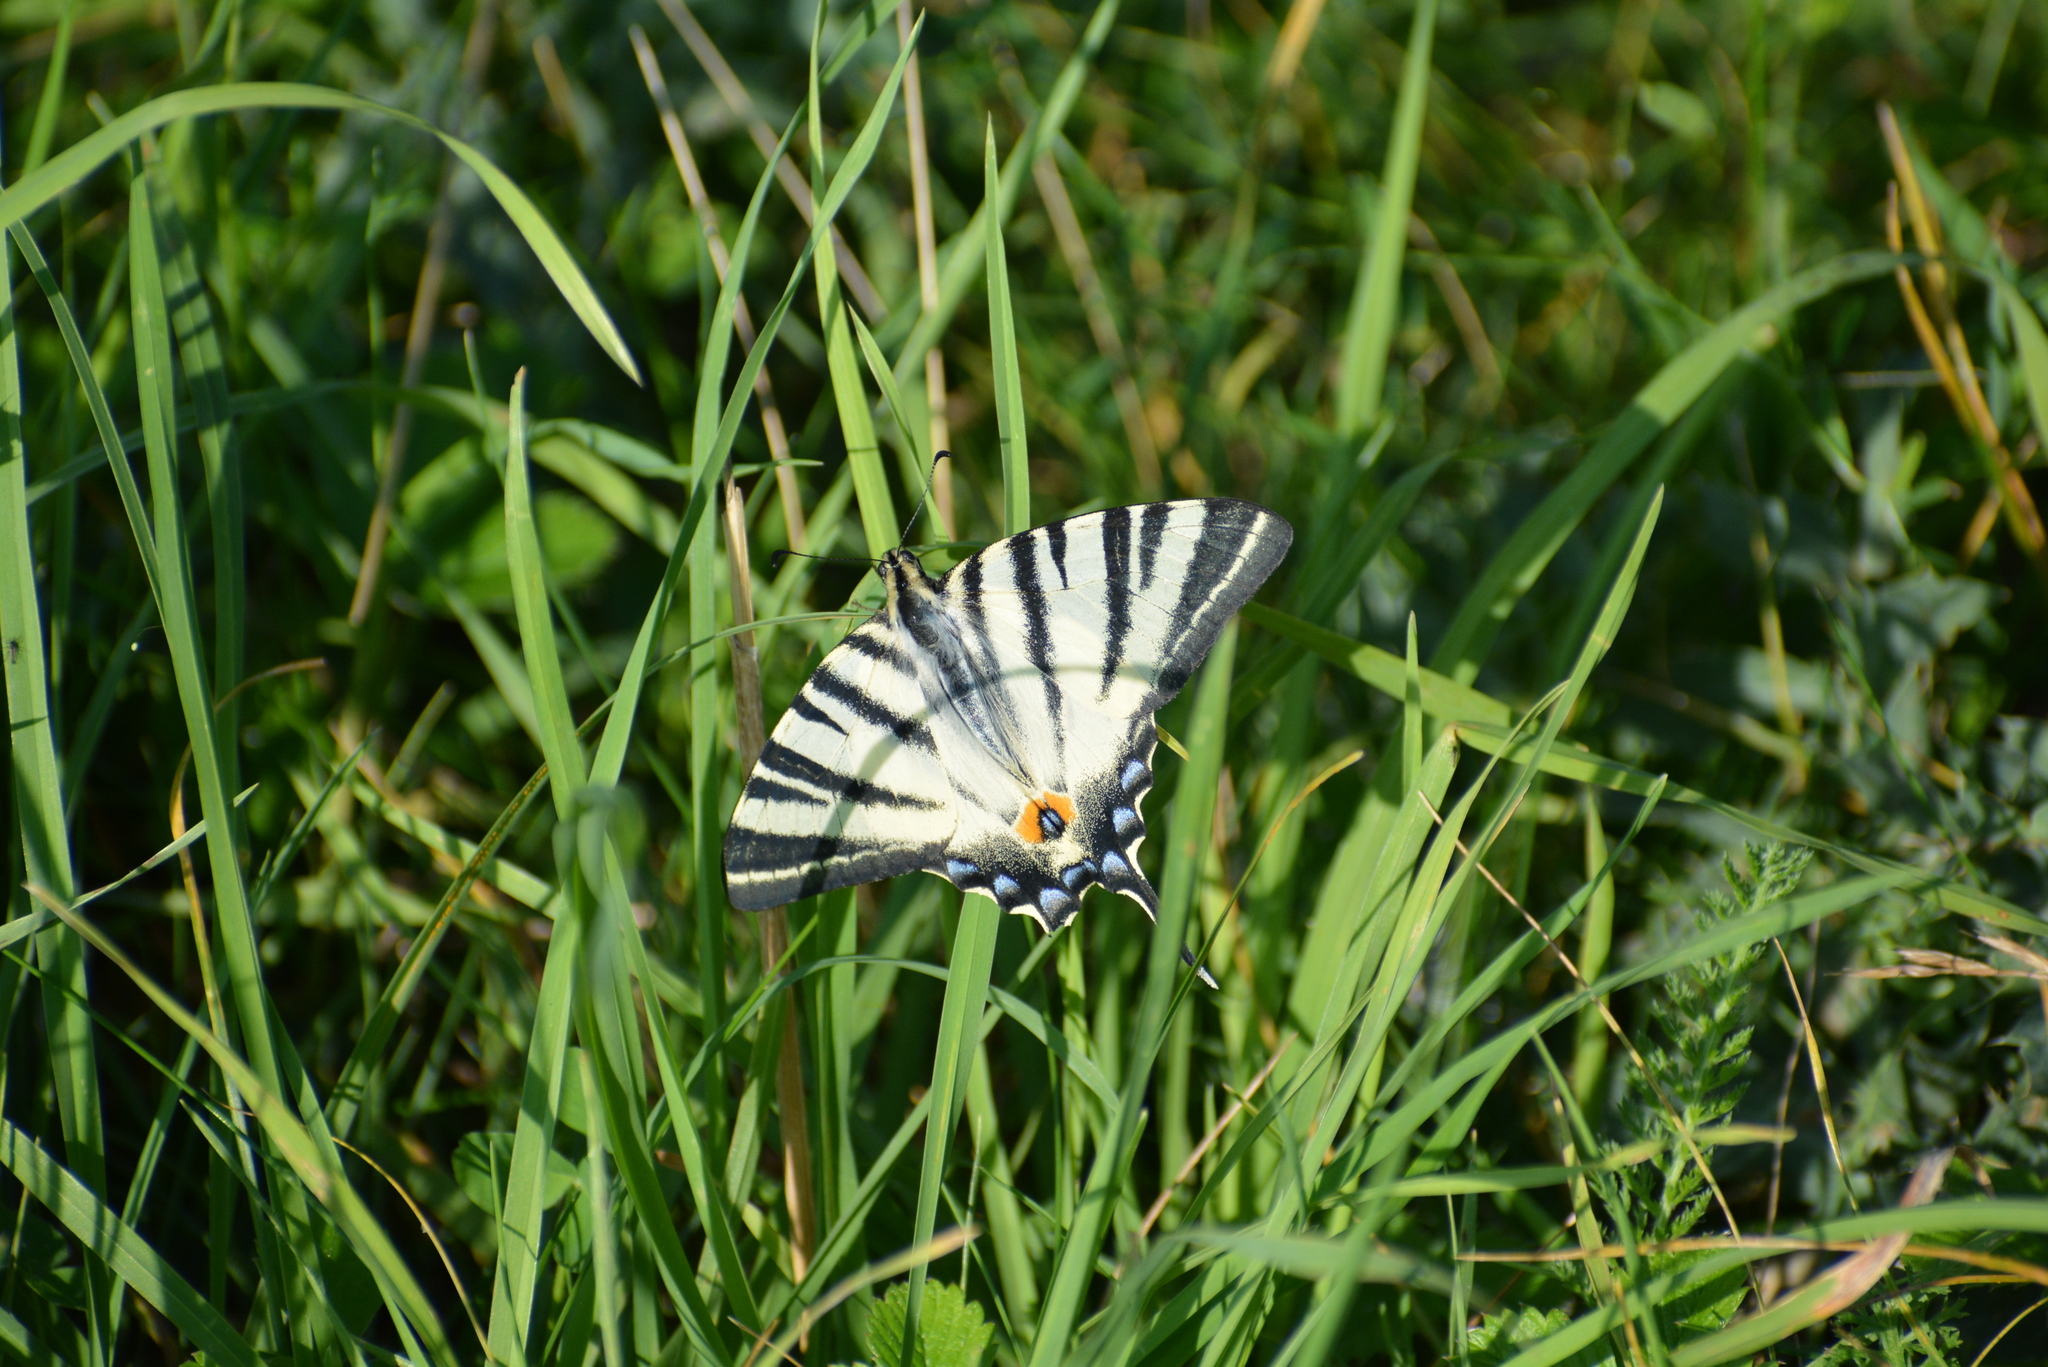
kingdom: Animalia
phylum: Arthropoda
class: Insecta
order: Lepidoptera
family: Papilionidae
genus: Iphiclides
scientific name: Iphiclides podalirius
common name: Scarce swallowtail
